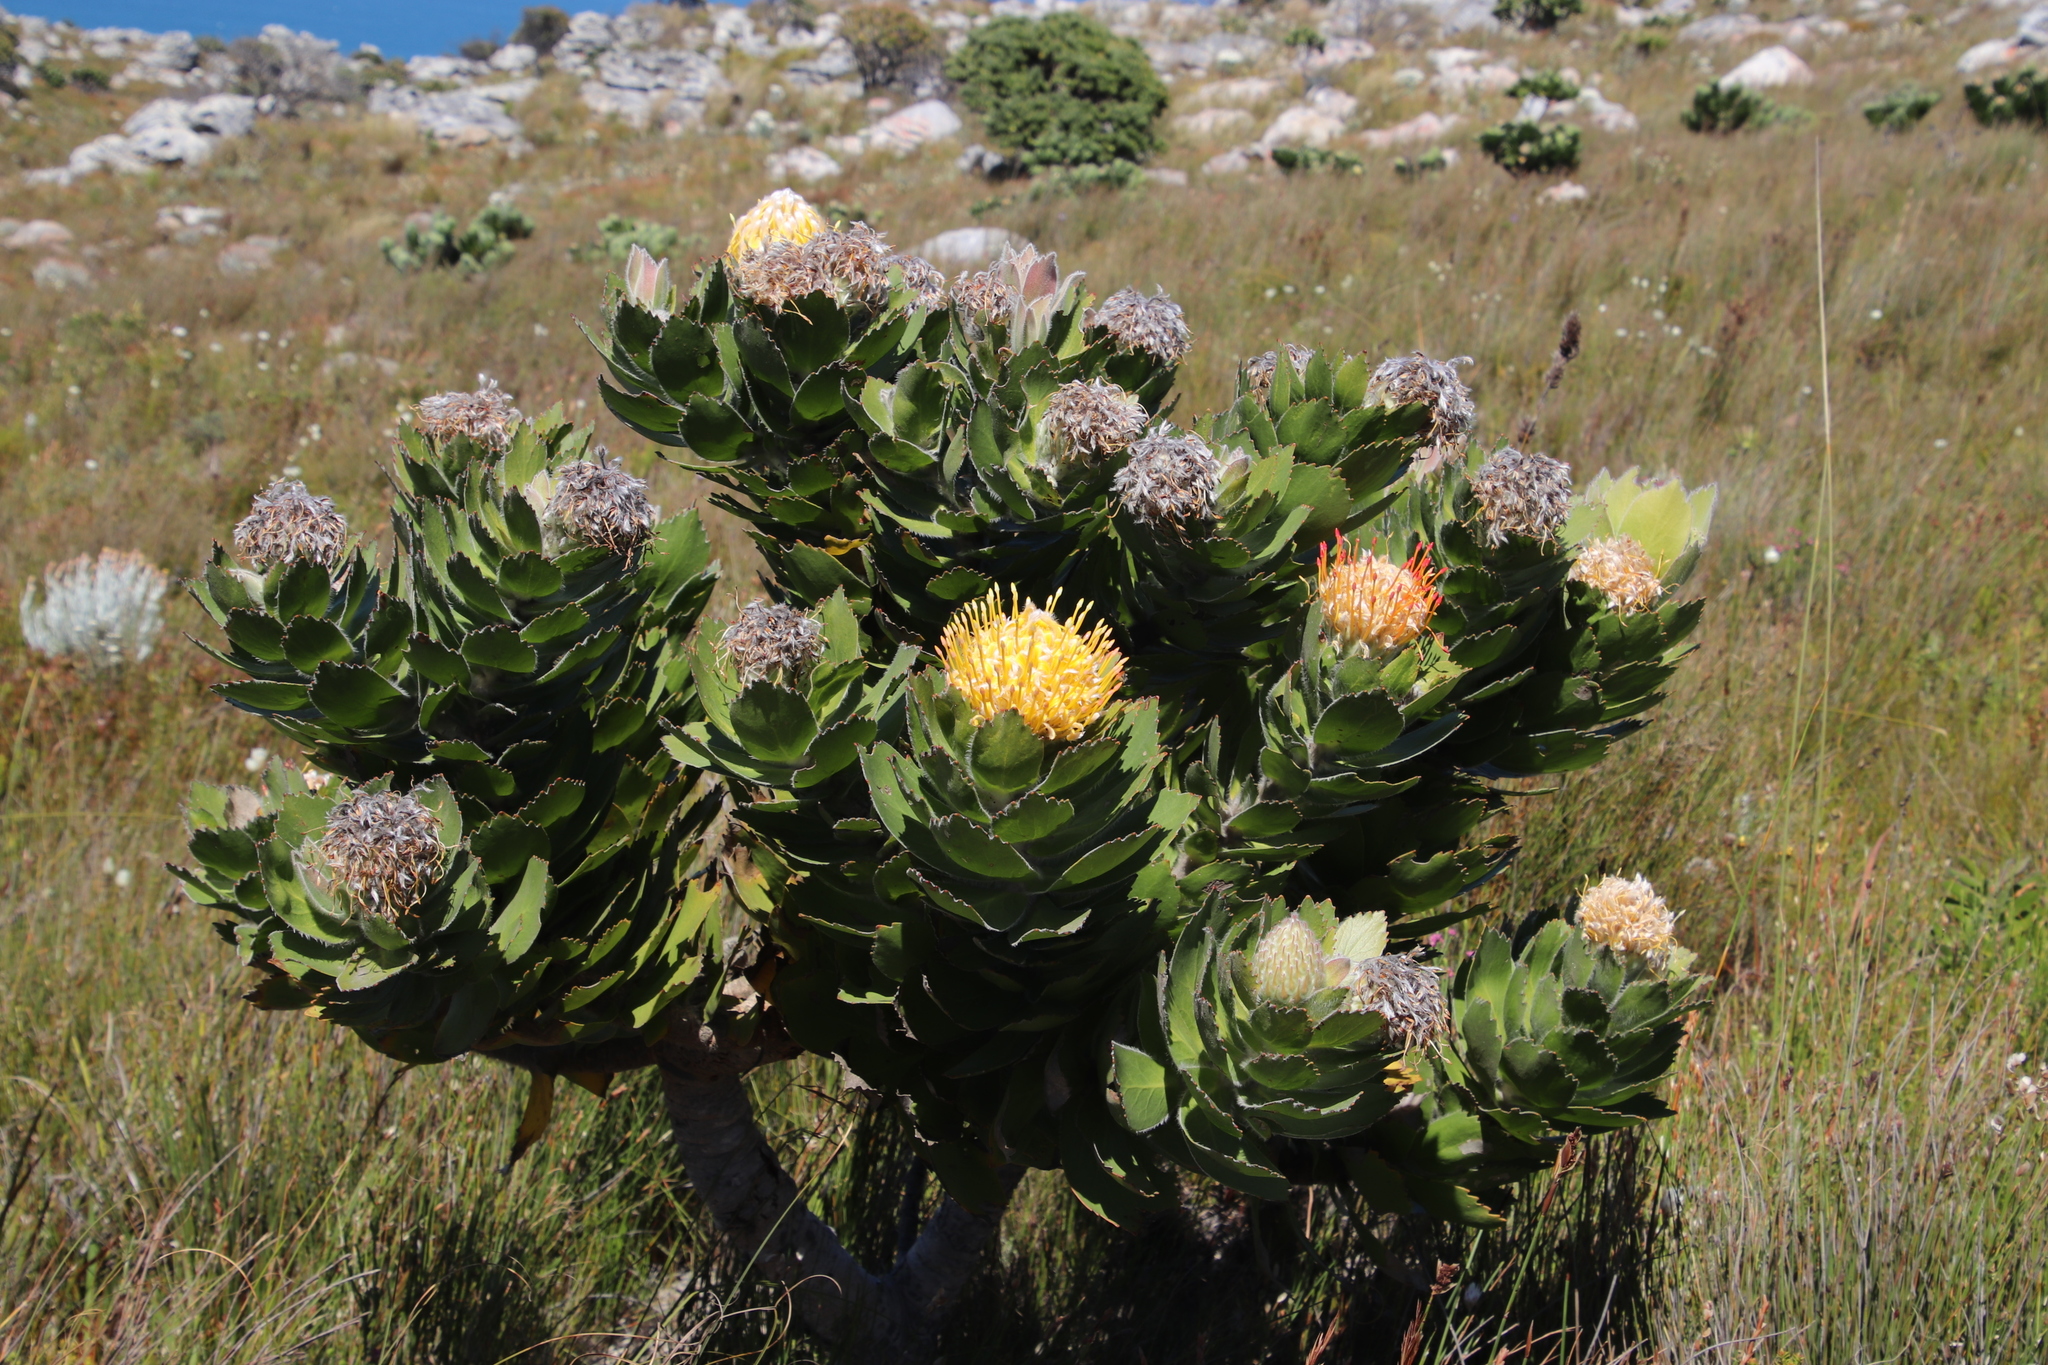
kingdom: Plantae
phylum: Tracheophyta
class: Magnoliopsida
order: Proteales
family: Proteaceae
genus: Leucospermum
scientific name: Leucospermum conocarpodendron
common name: Tree pincushion
